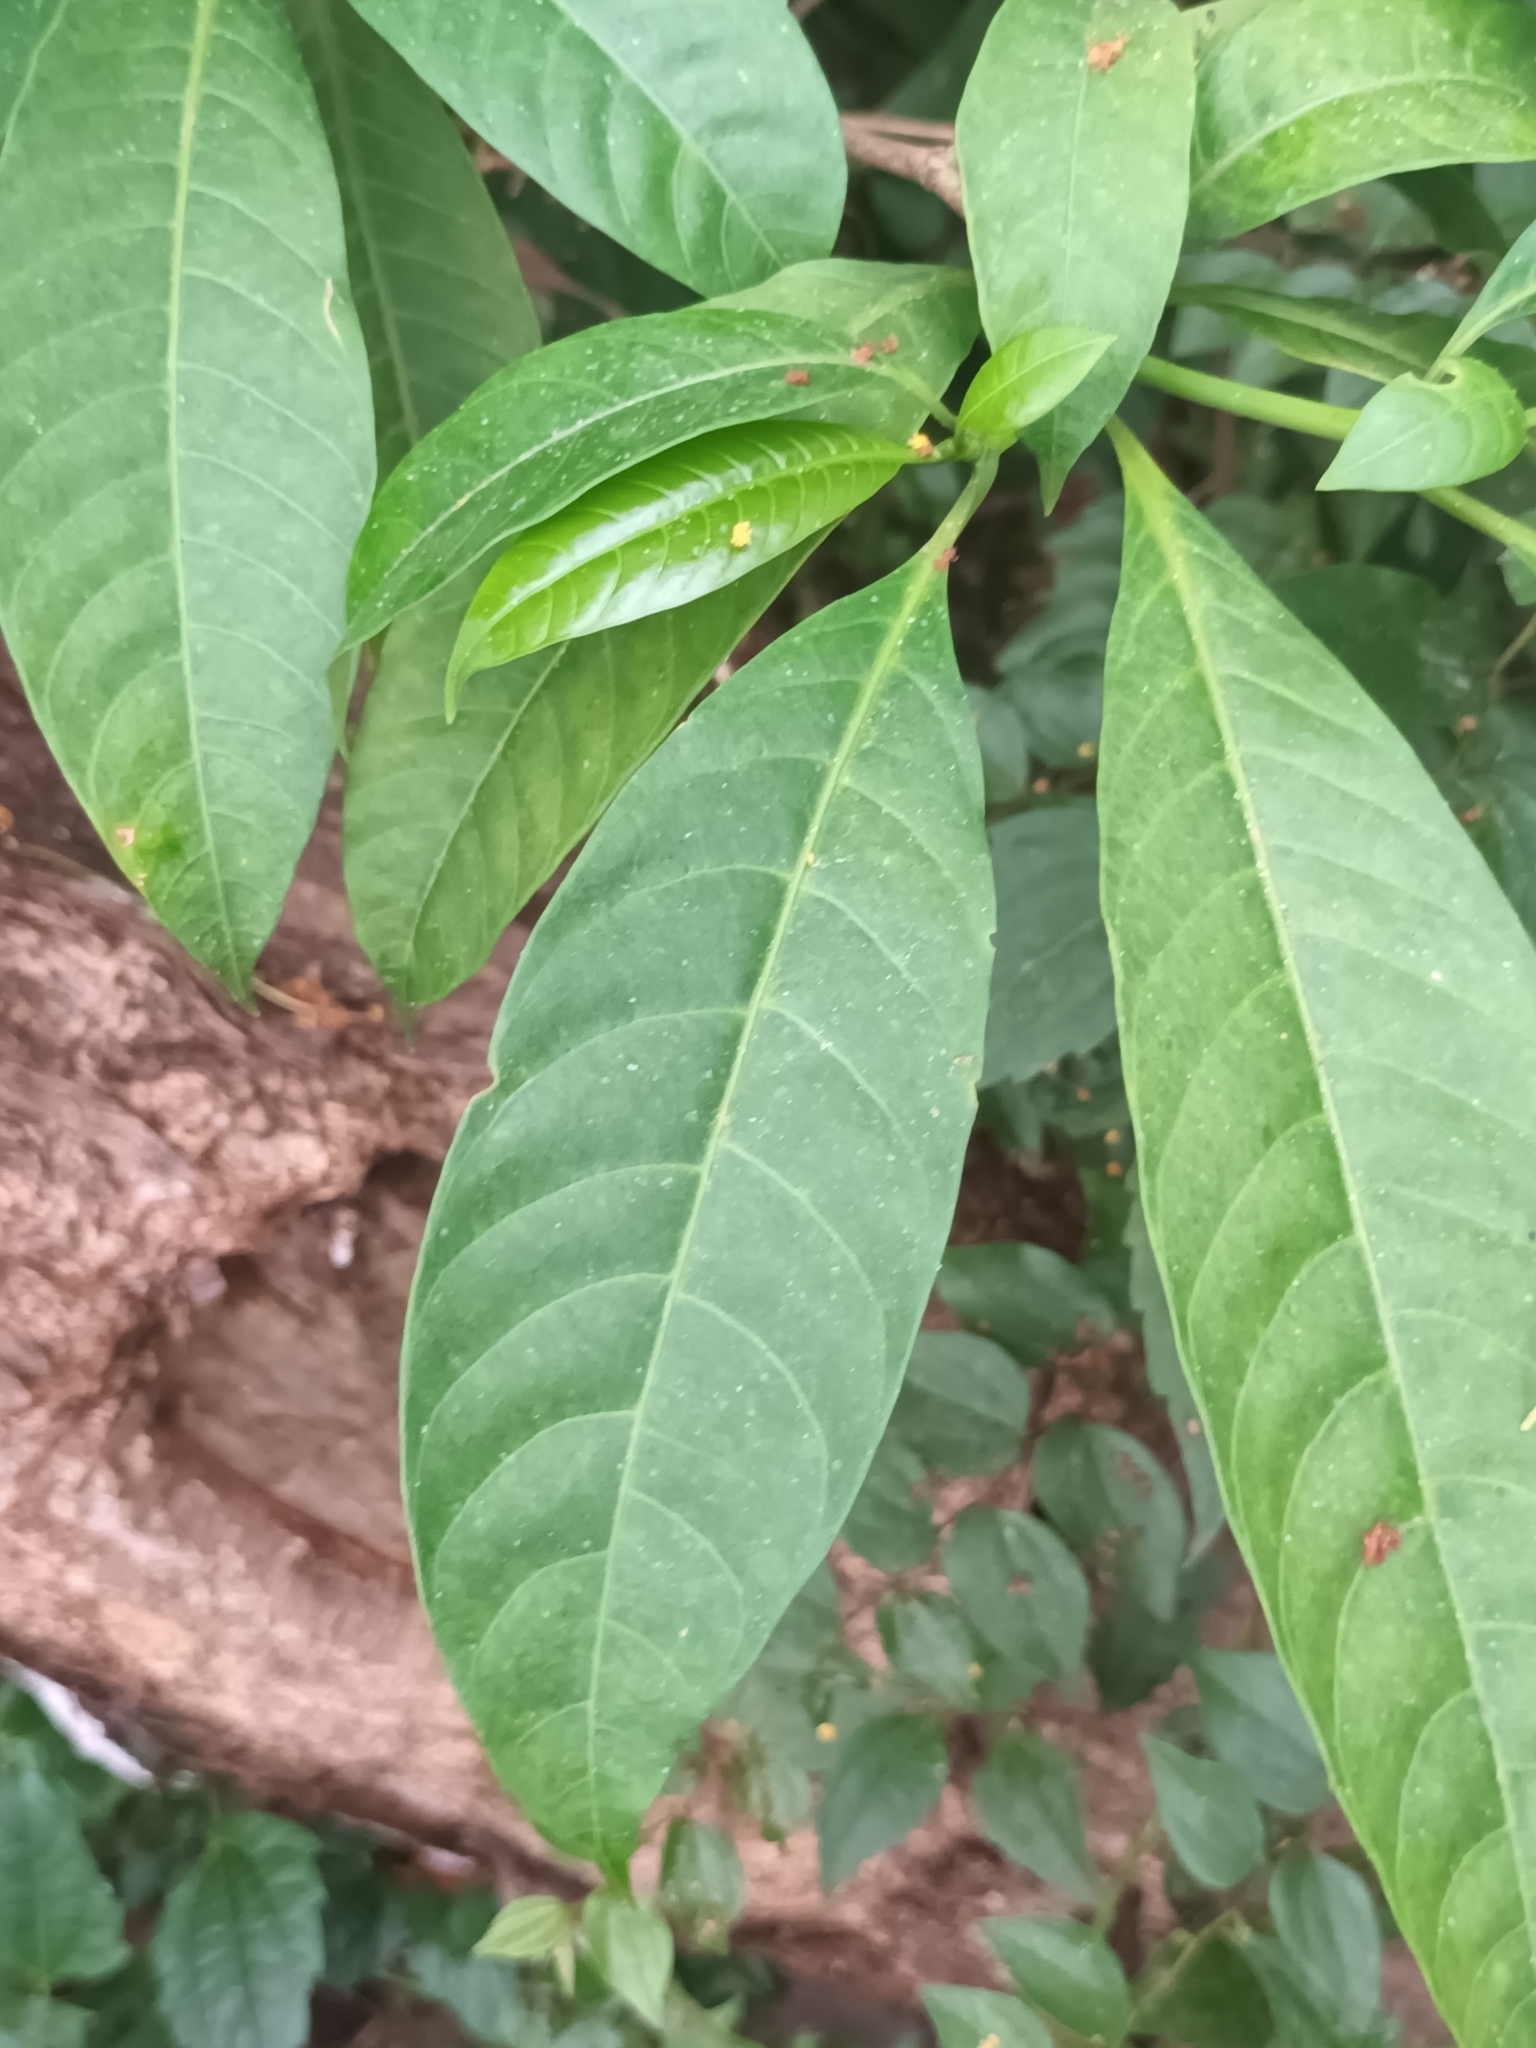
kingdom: Plantae
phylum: Tracheophyta
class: Magnoliopsida
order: Gentianales
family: Apocynaceae
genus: Tabernaemontana
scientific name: Tabernaemontana alternifolia
